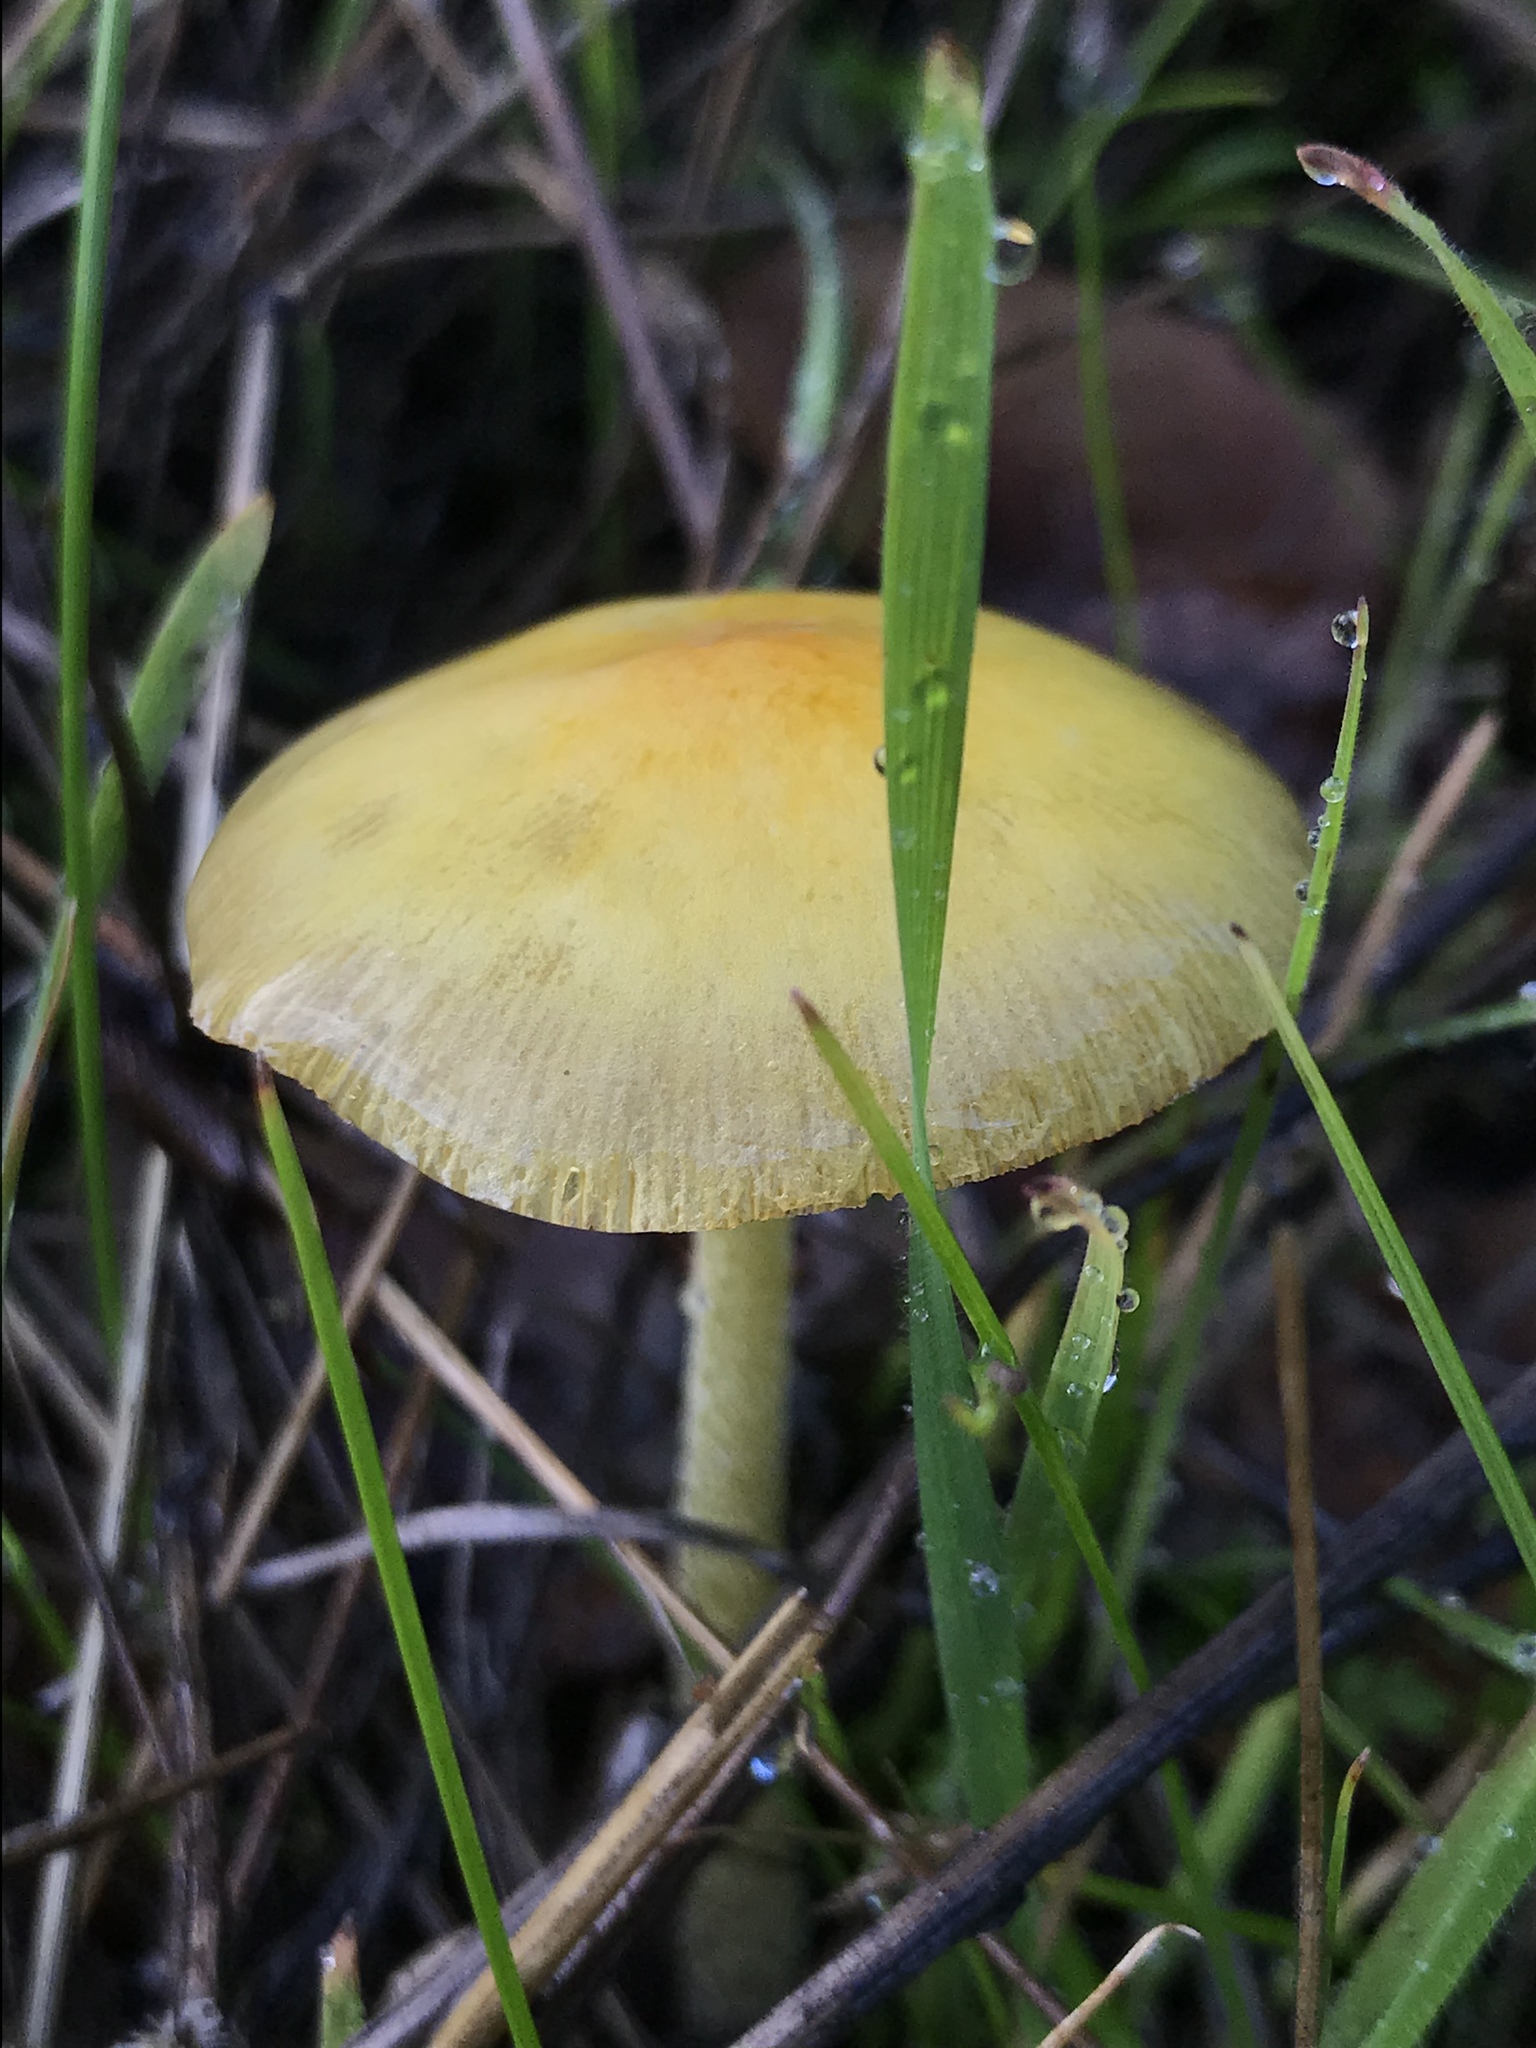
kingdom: Fungi
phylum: Basidiomycota
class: Agaricomycetes
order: Agaricales
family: Bolbitiaceae
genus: Bolbitius
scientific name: Bolbitius titubans
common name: Yellow fieldcap
